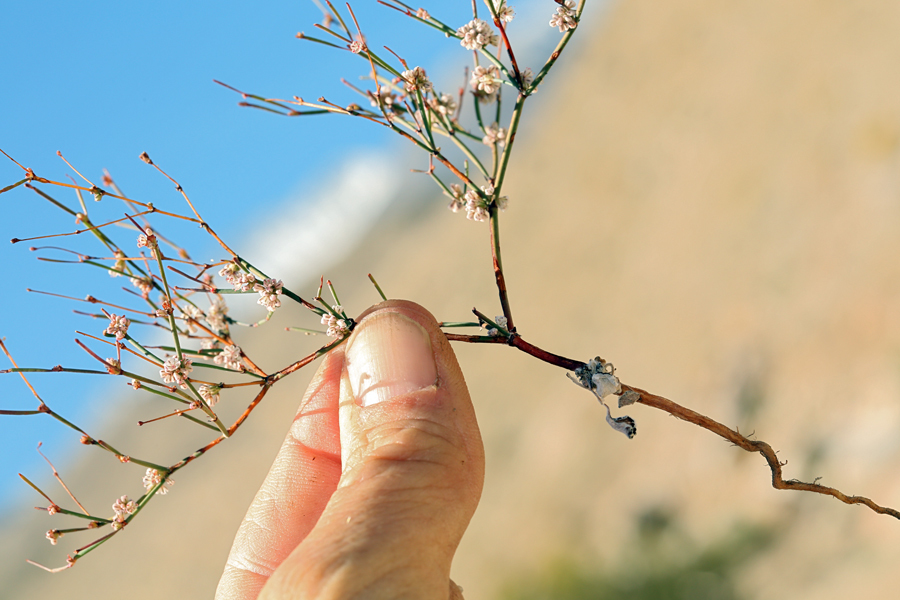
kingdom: Plantae
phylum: Tracheophyta
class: Magnoliopsida
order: Caryophyllales
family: Polygonaceae
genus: Eriogonum
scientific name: Eriogonum baileyi
